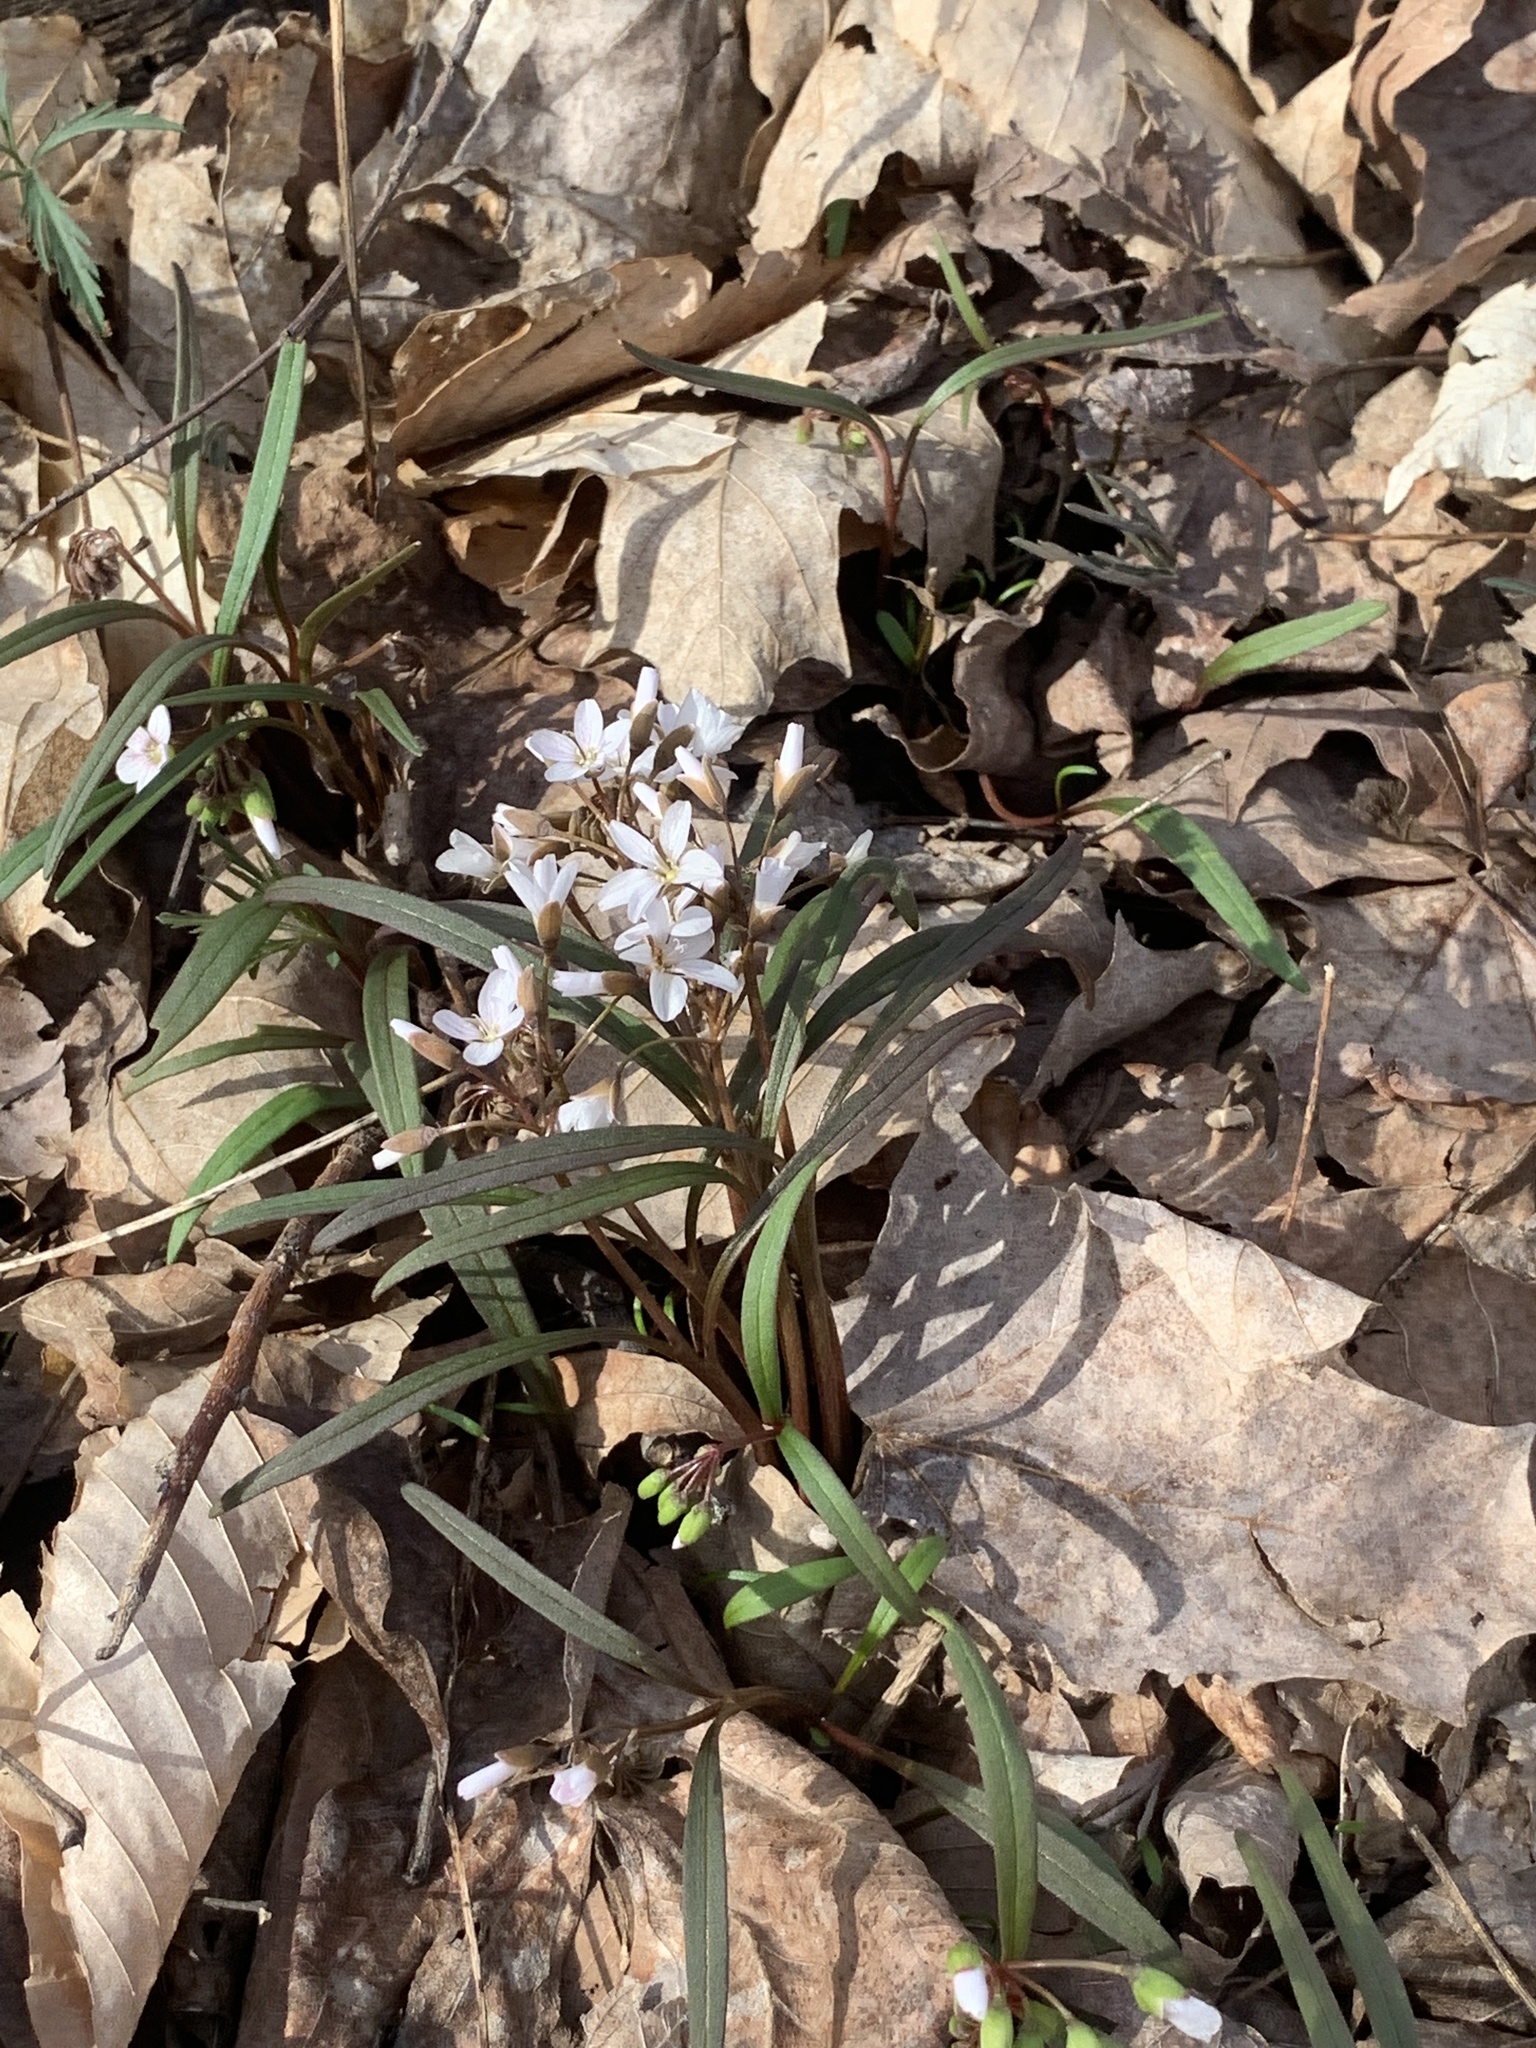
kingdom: Plantae
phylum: Tracheophyta
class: Magnoliopsida
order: Caryophyllales
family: Montiaceae
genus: Claytonia
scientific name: Claytonia virginica
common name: Virginia springbeauty
